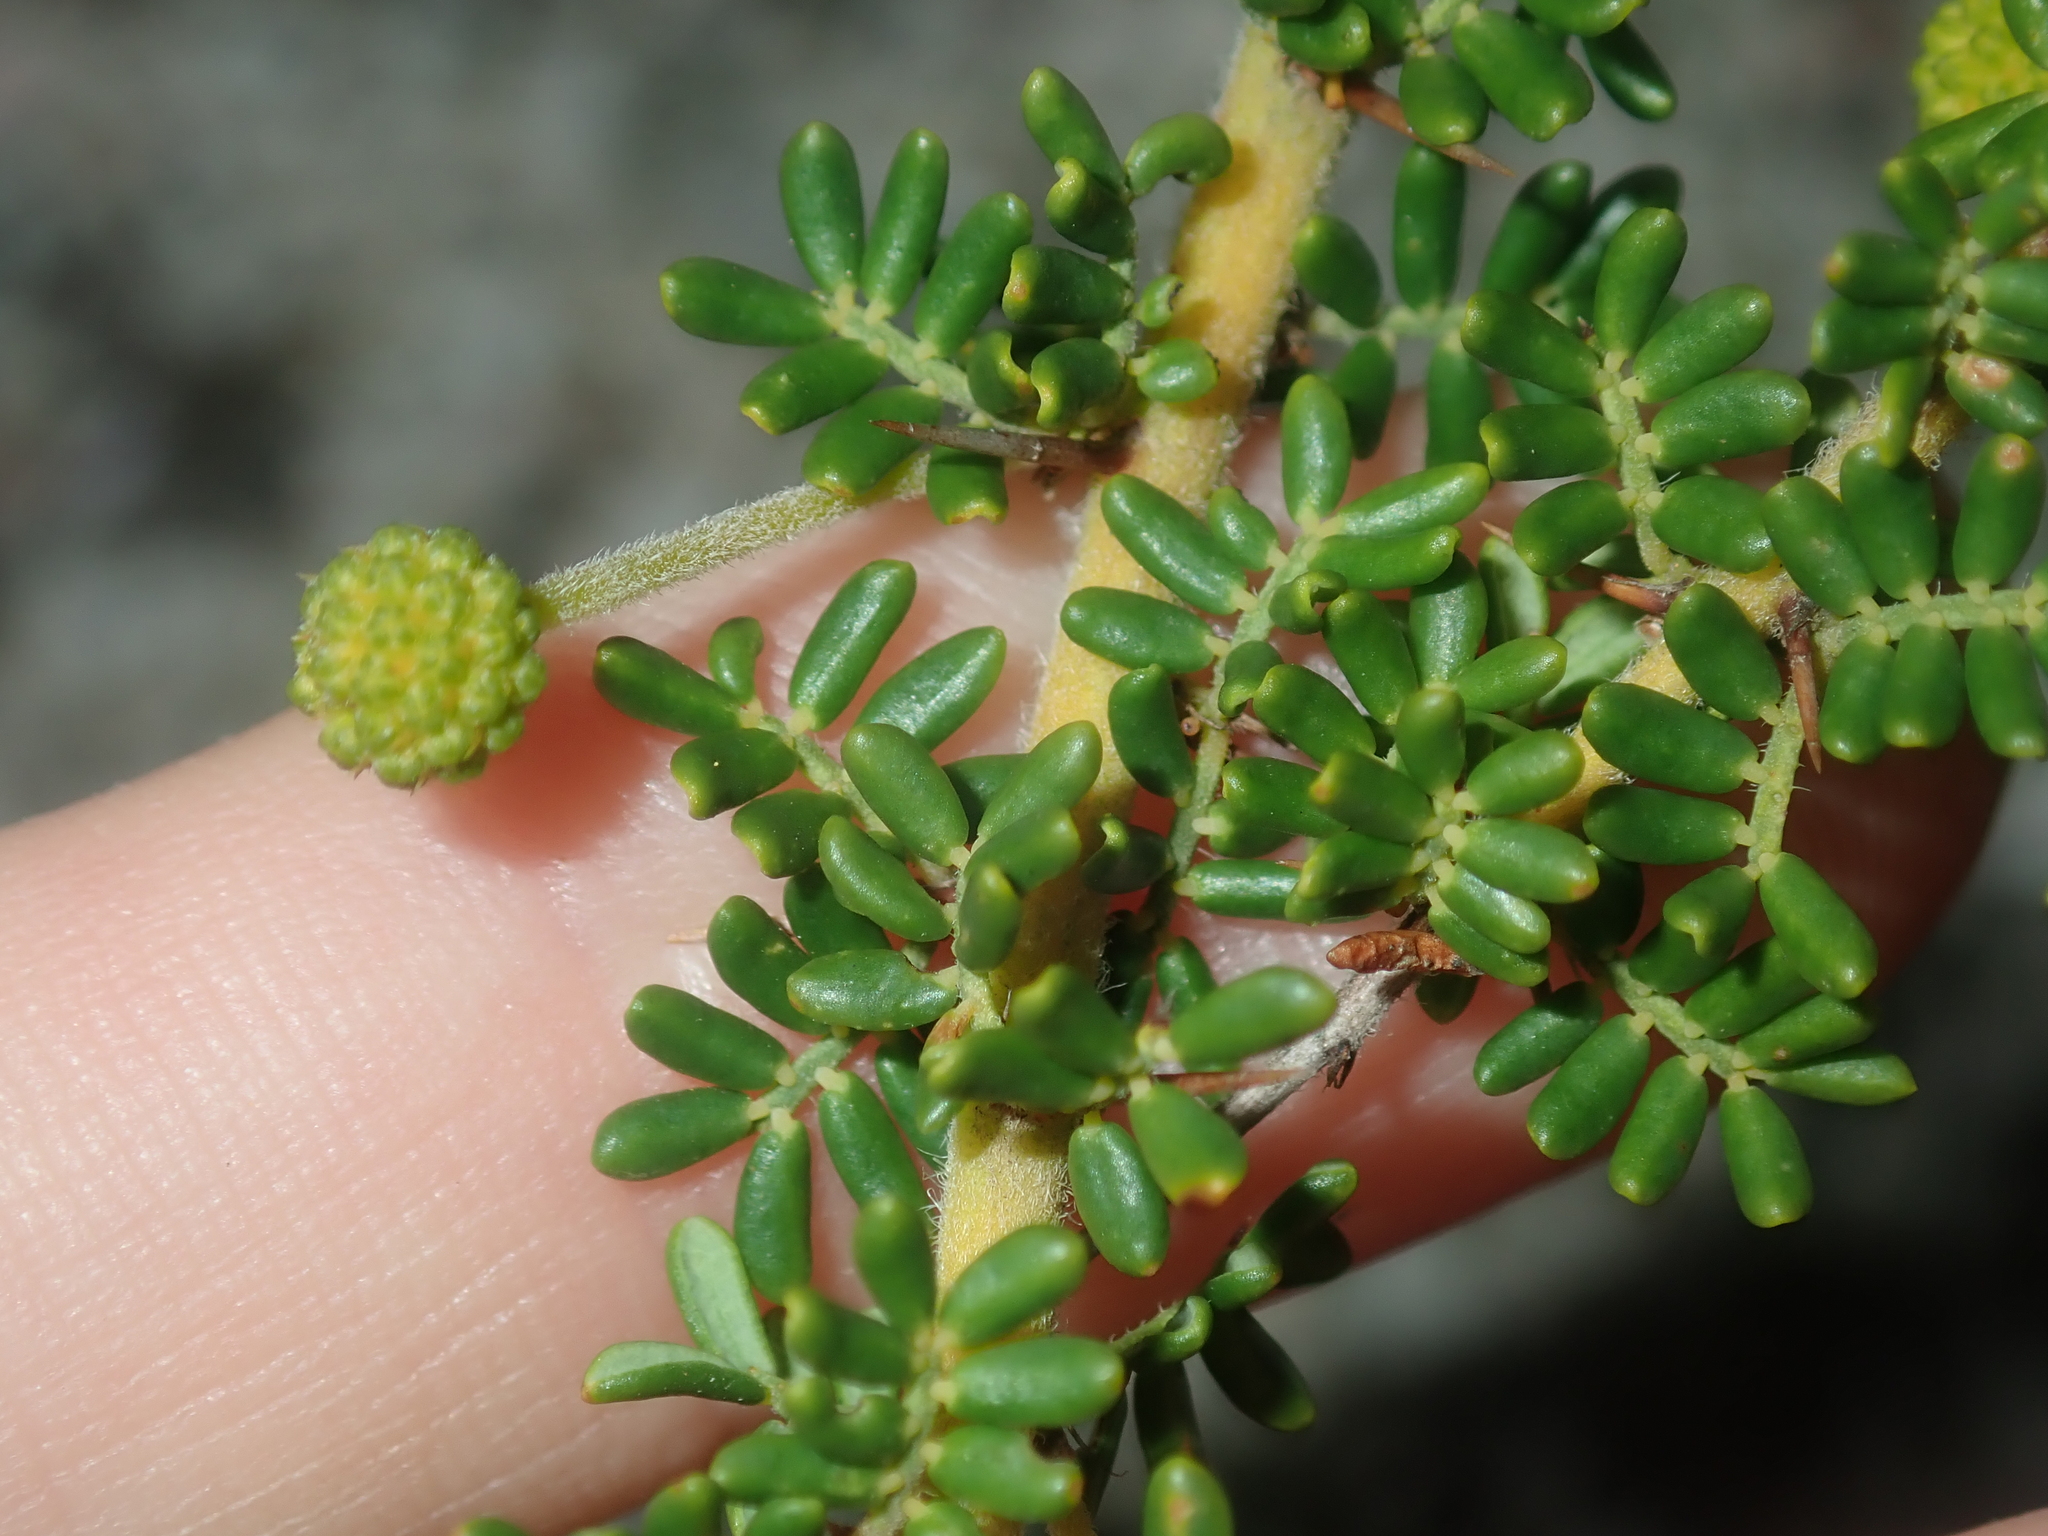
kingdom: Plantae
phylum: Tracheophyta
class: Magnoliopsida
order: Fabales
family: Fabaceae
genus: Acacia
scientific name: Acacia lasiocarpa
